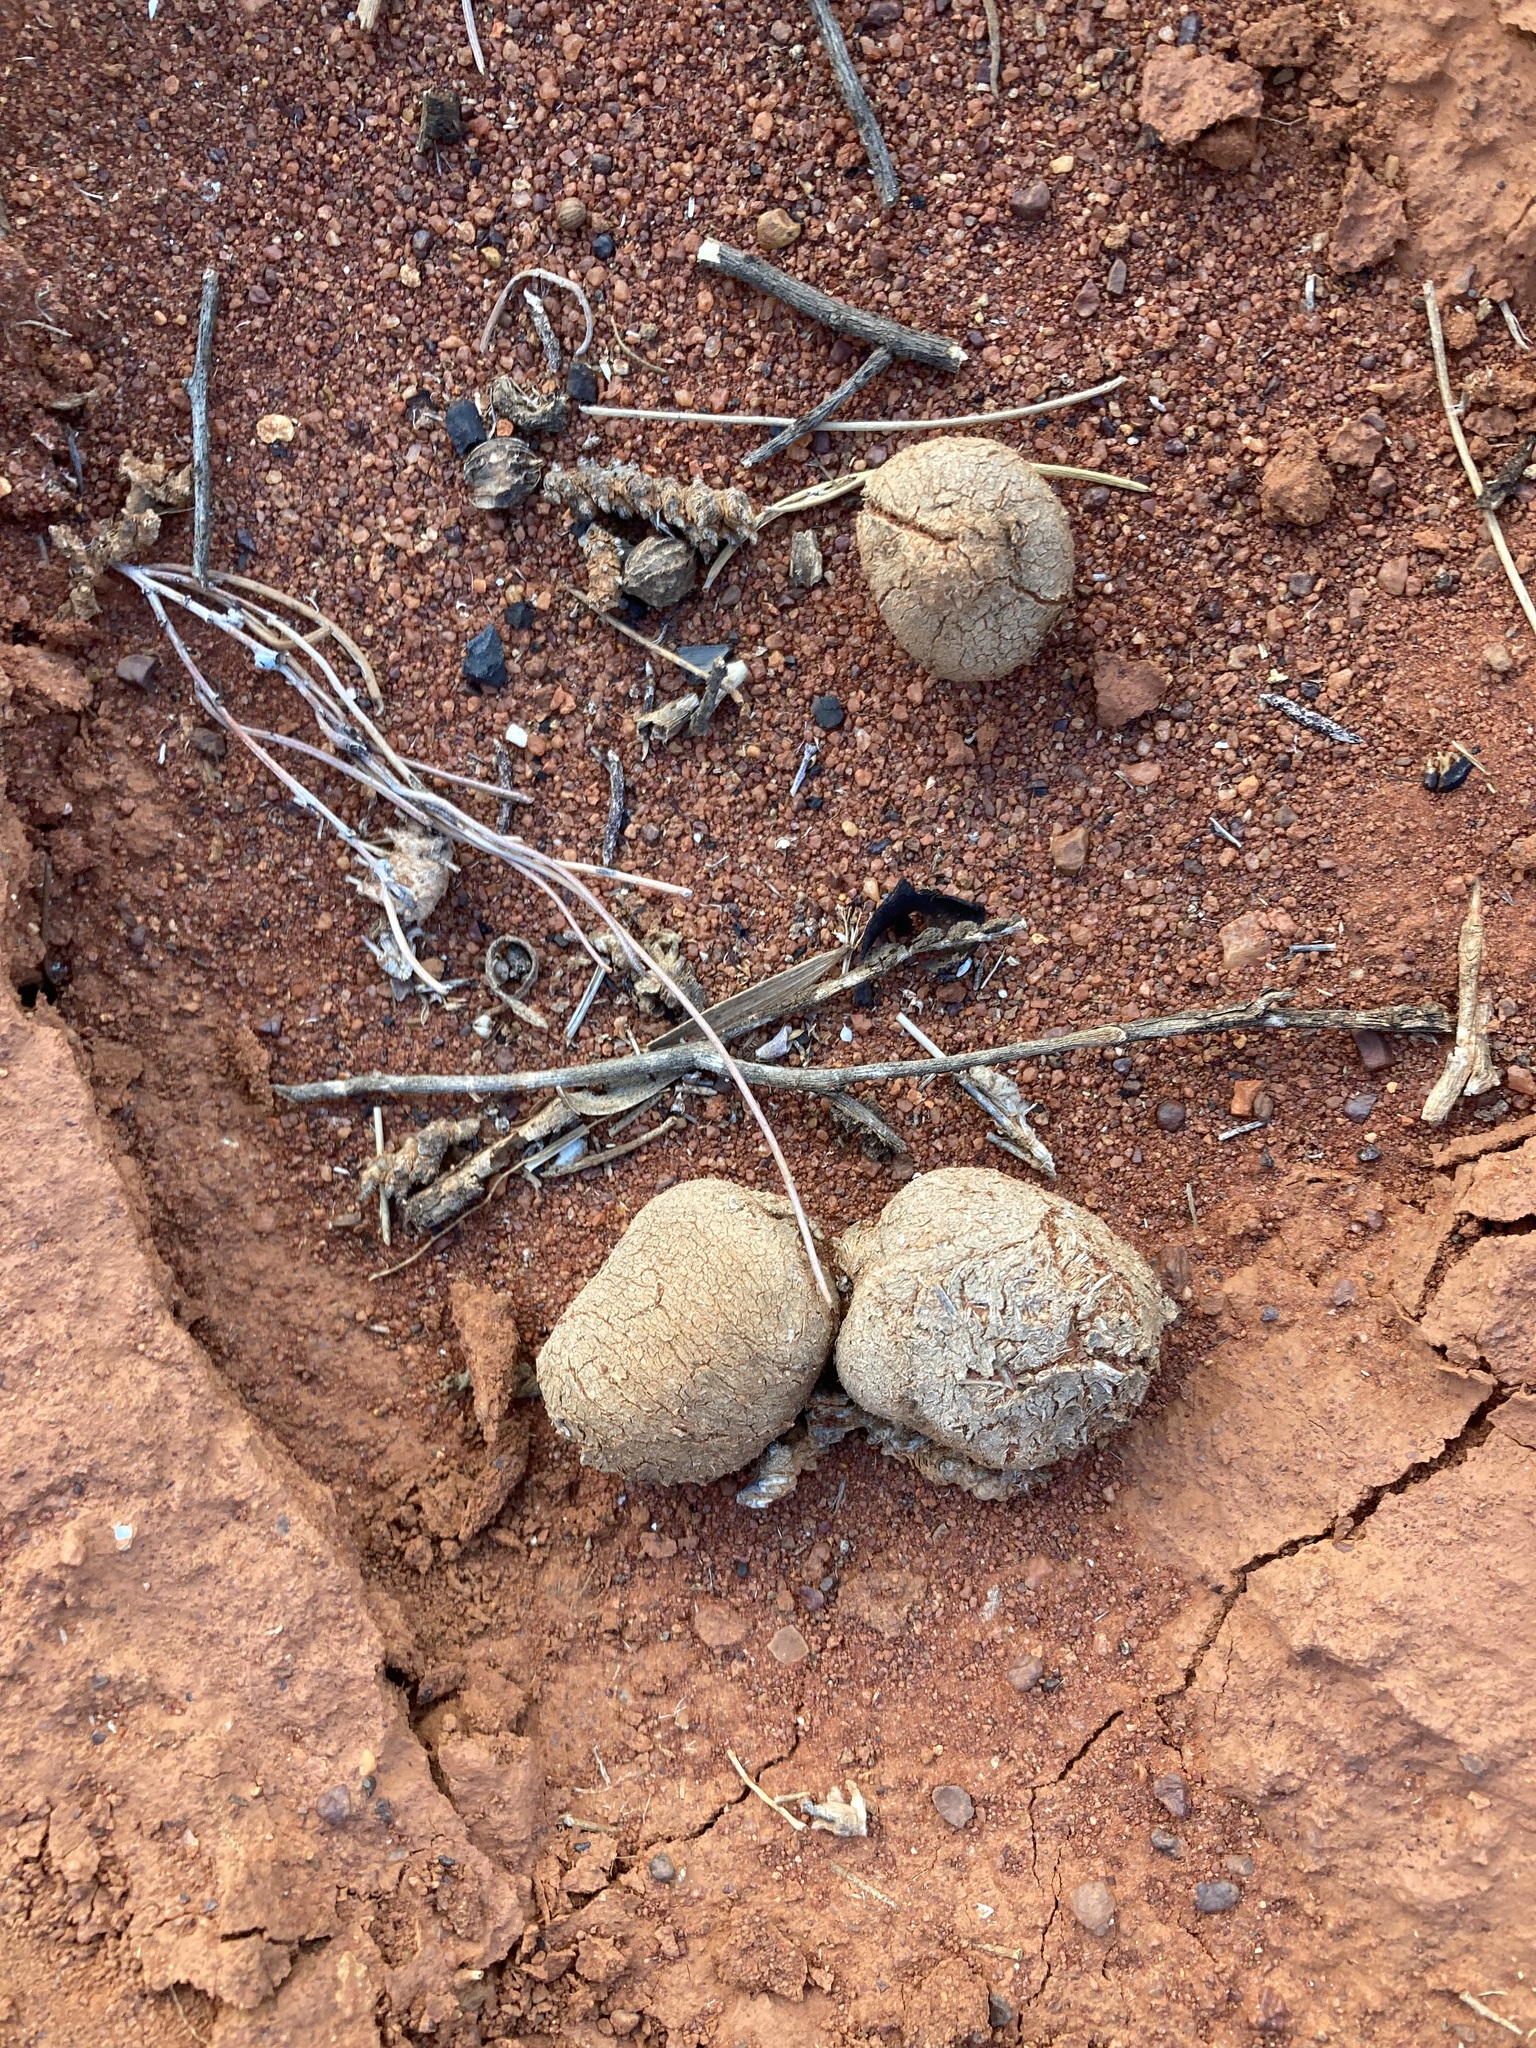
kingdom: Animalia
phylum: Chordata
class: Mammalia
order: Artiodactyla
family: Camelidae
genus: Camelus
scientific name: Camelus dromedarius
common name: One-humped camel
